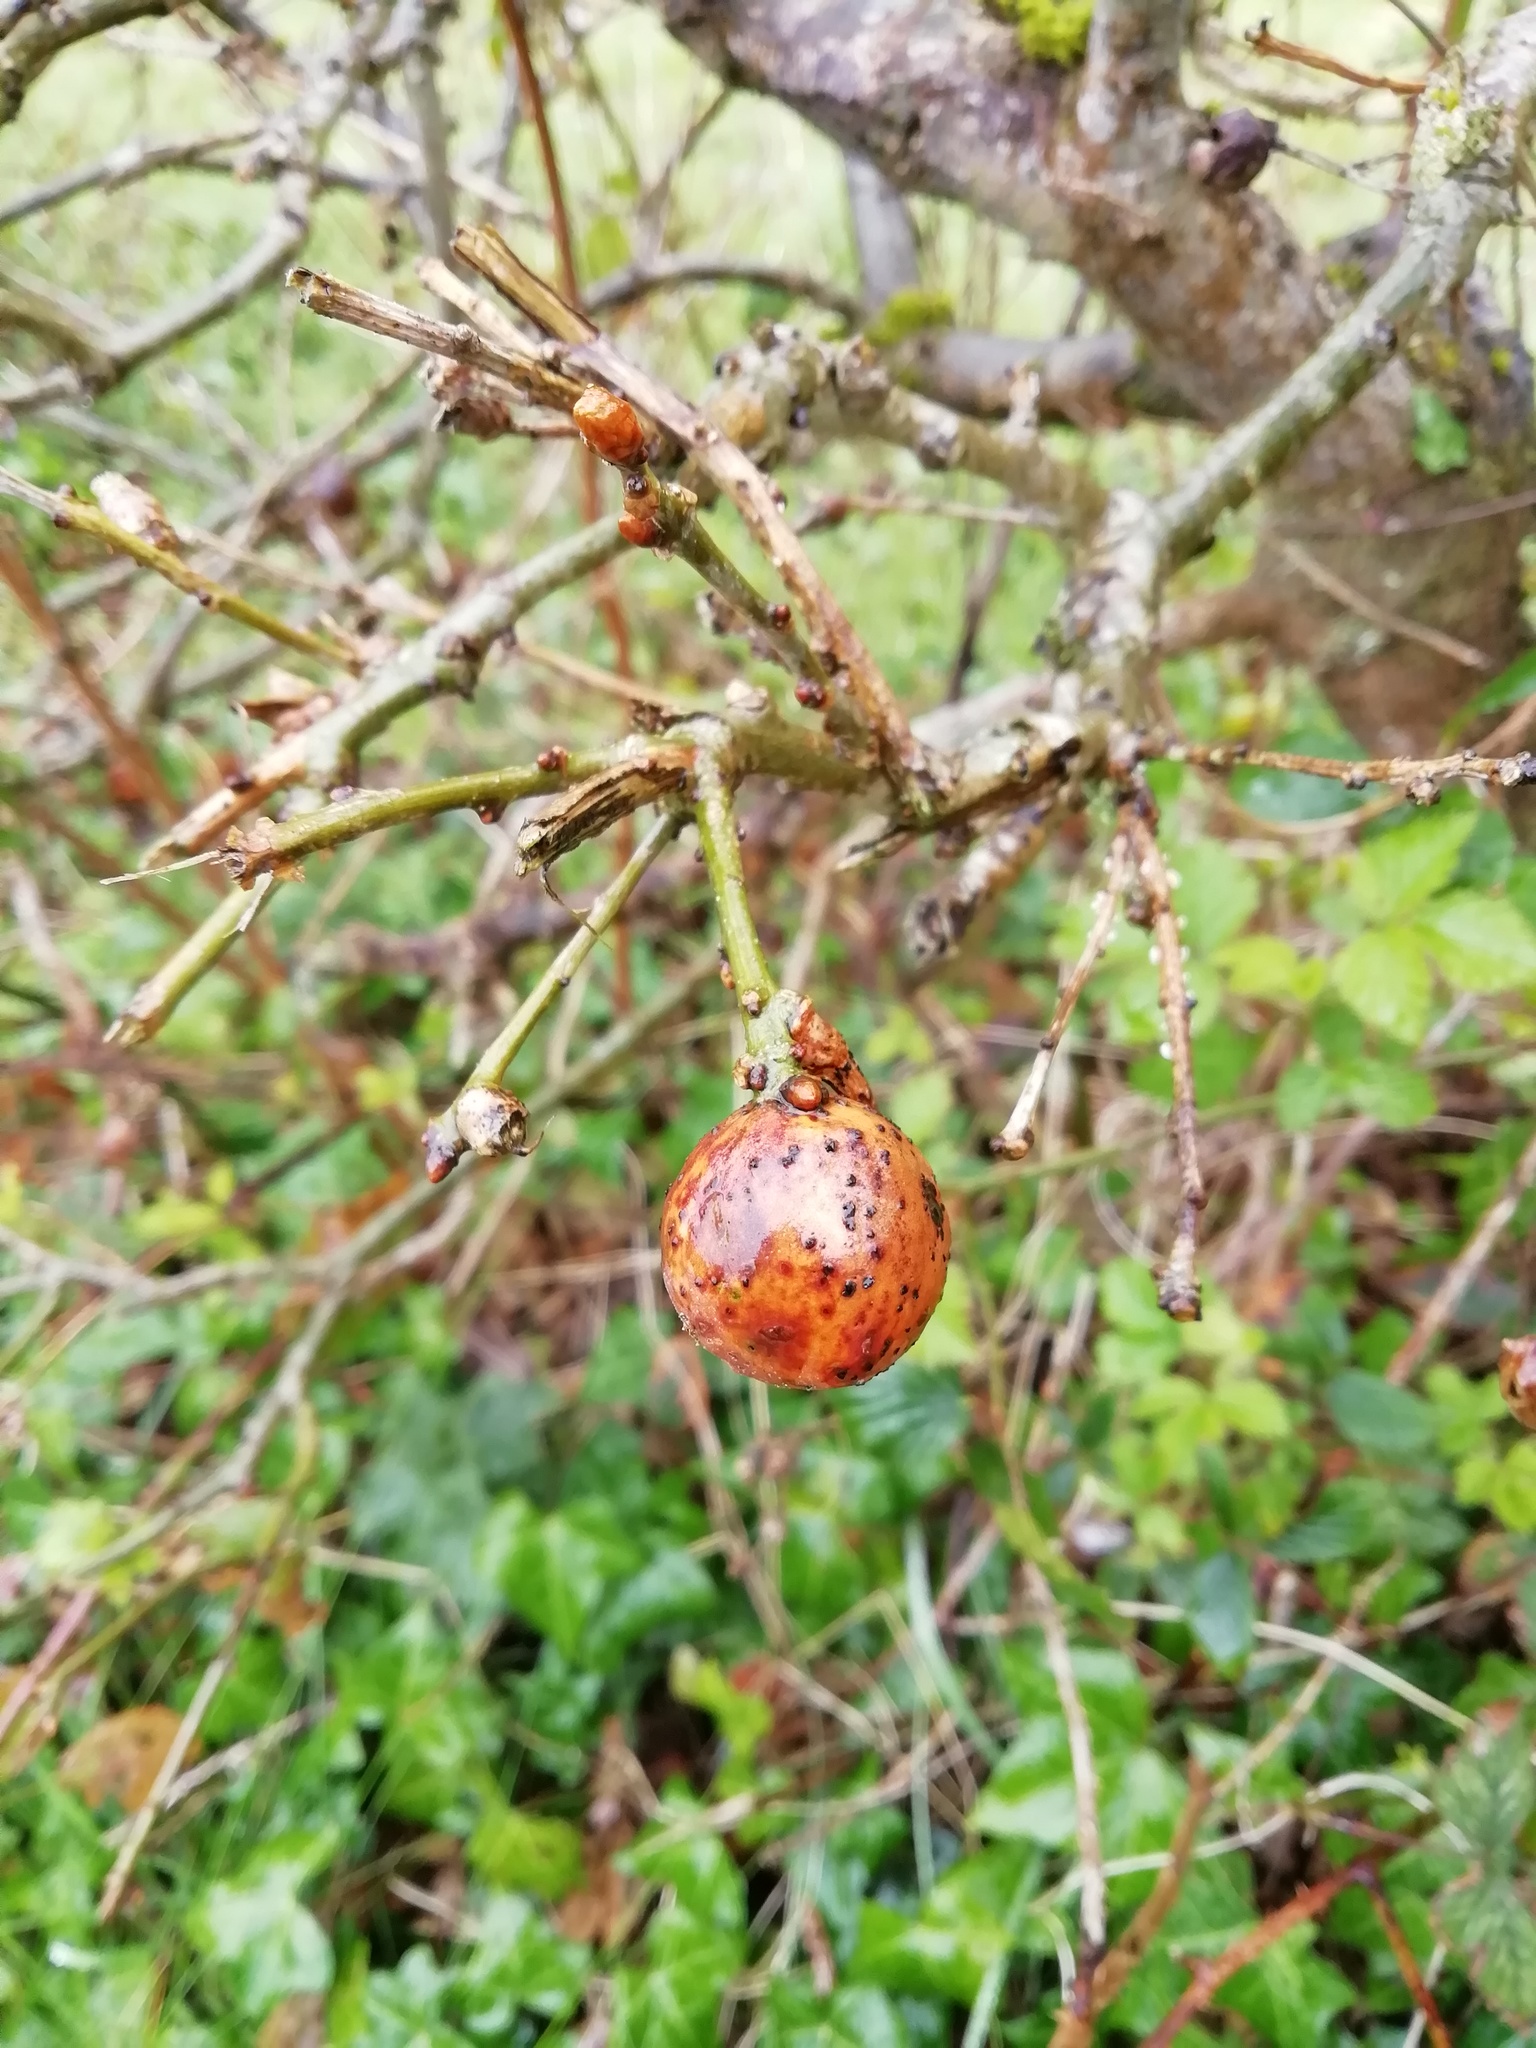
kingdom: Animalia
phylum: Arthropoda
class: Insecta
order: Hymenoptera
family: Cynipidae
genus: Andricus
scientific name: Andricus kollari
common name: Marble gall
